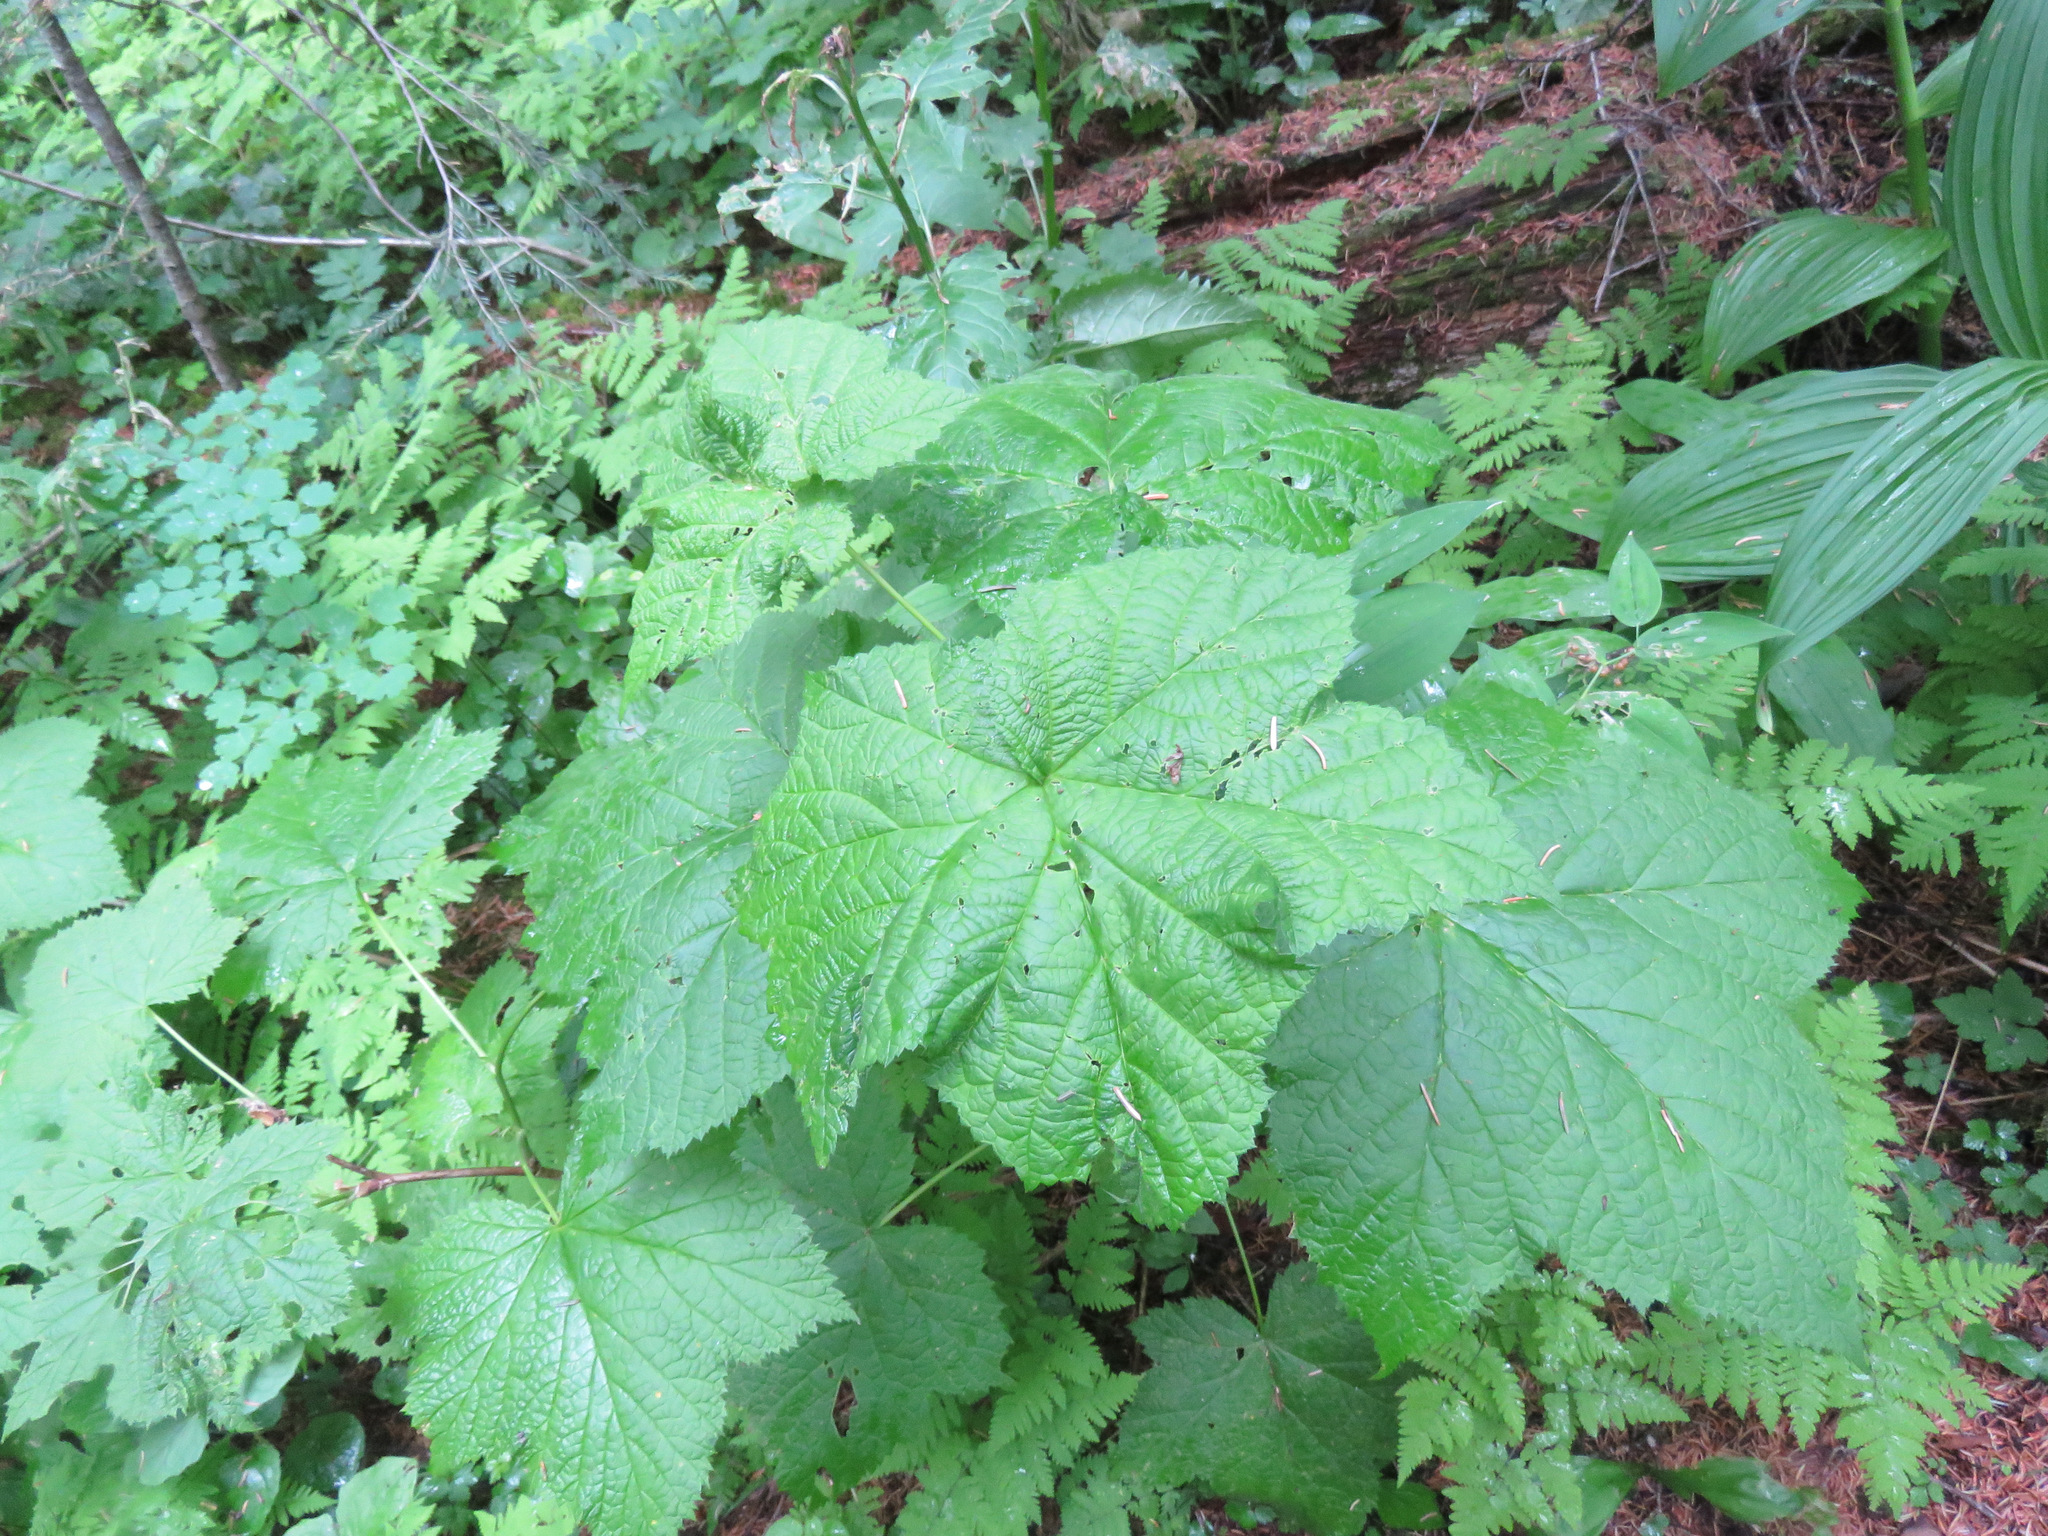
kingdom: Plantae
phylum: Tracheophyta
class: Magnoliopsida
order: Rosales
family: Rosaceae
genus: Rubus
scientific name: Rubus parviflorus
